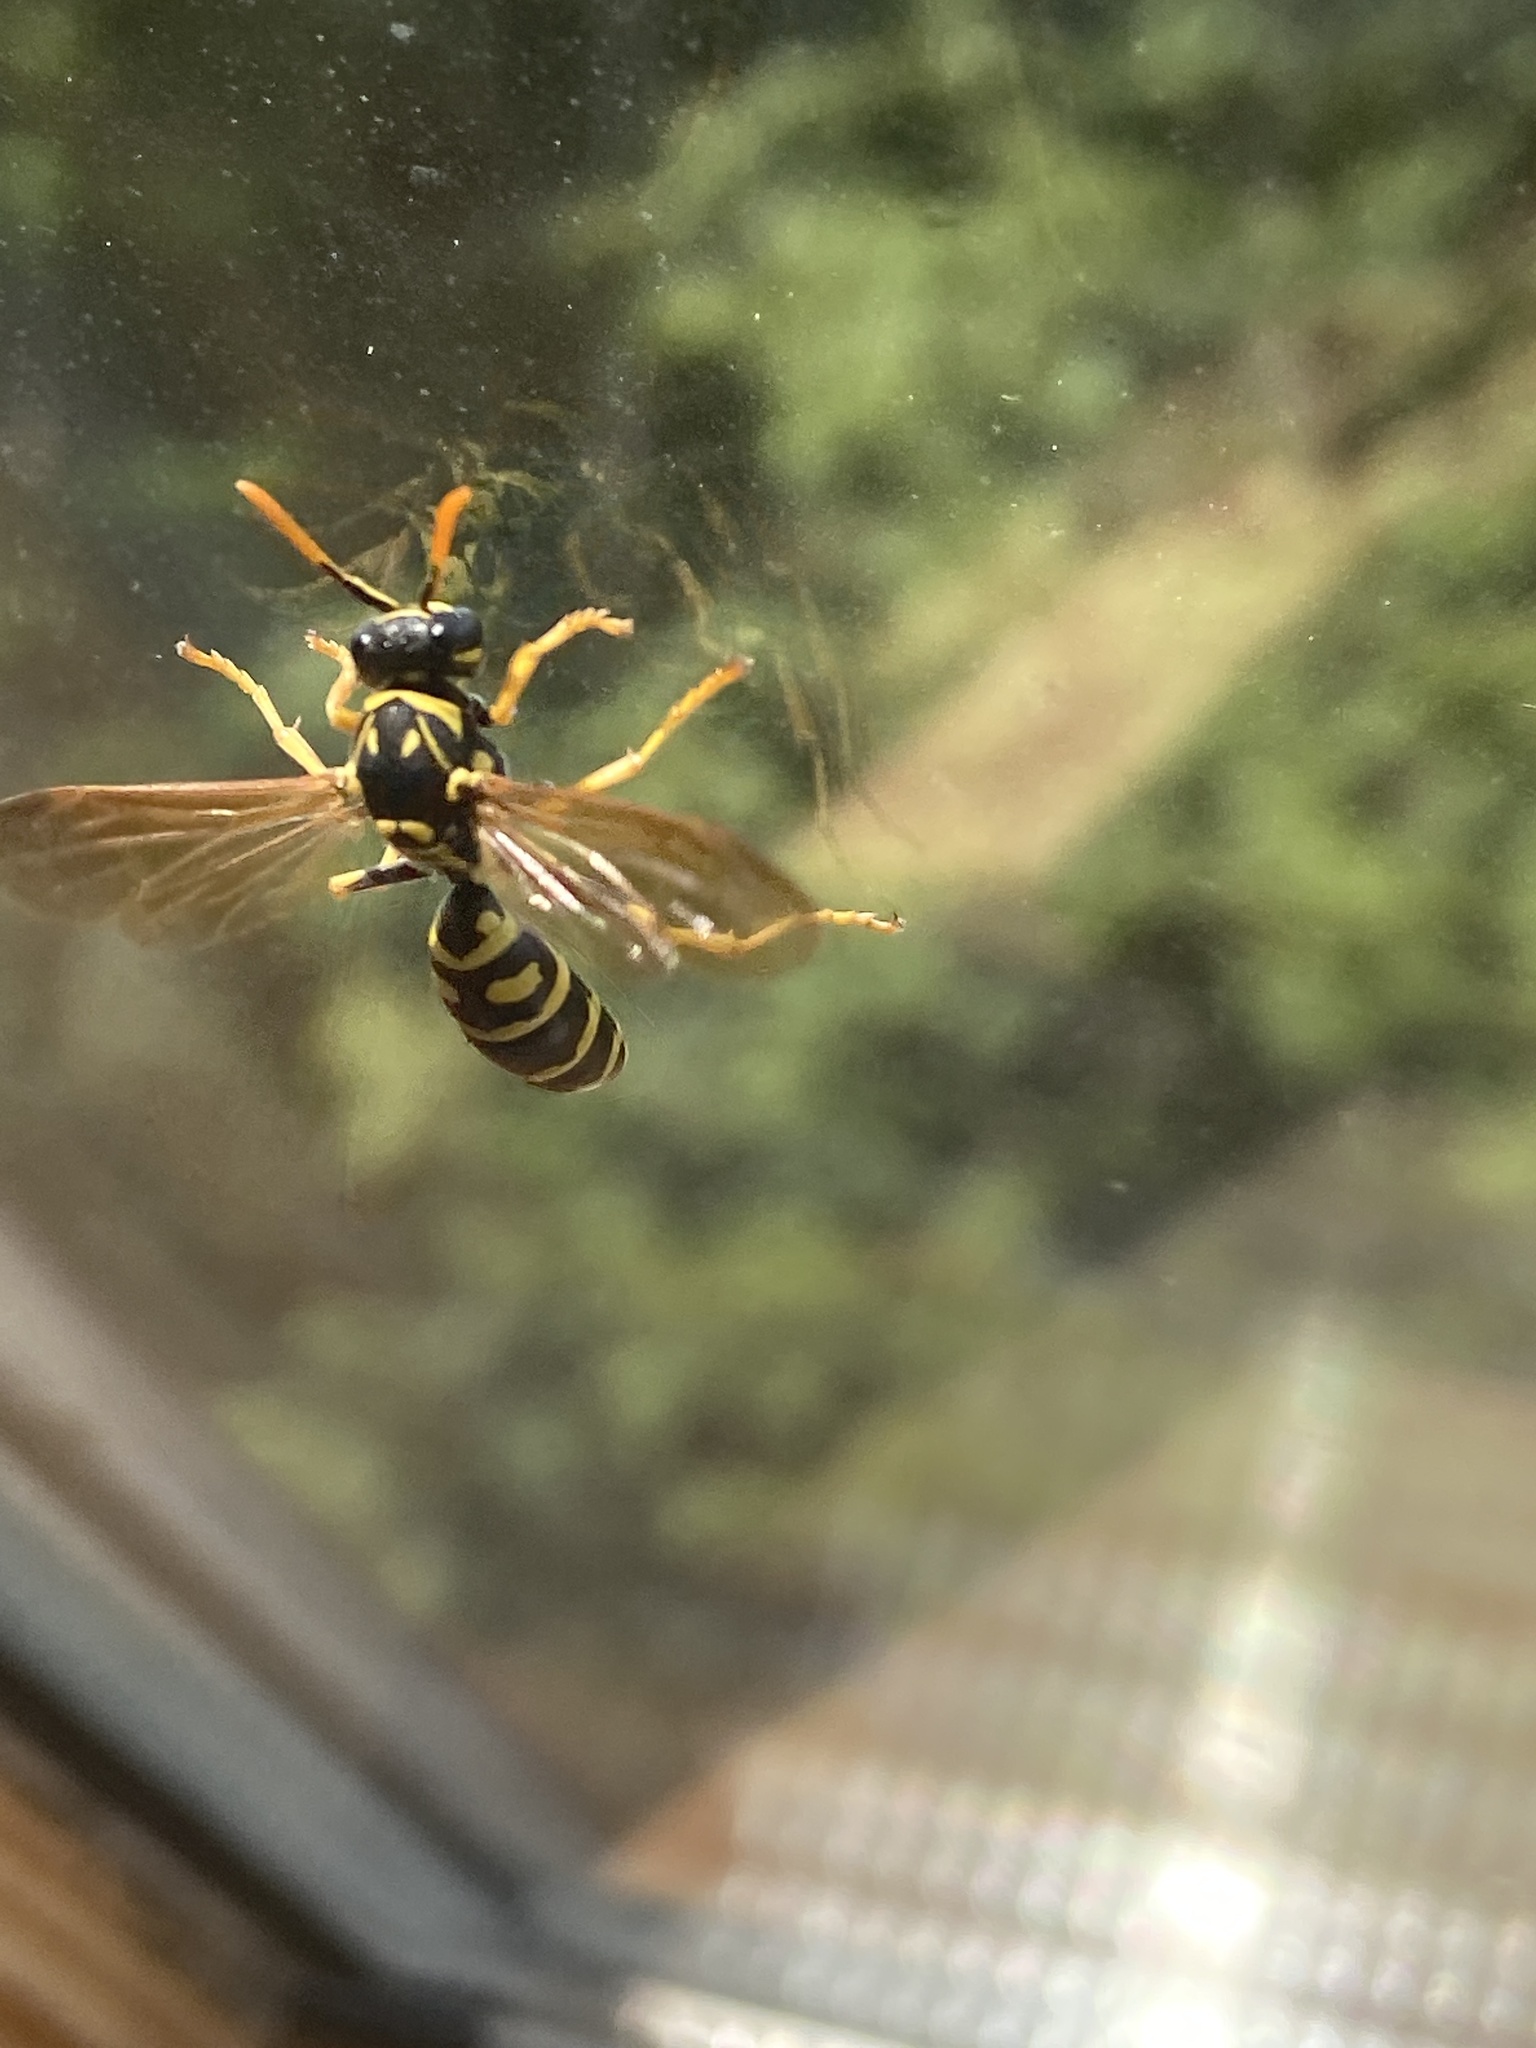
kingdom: Animalia
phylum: Arthropoda
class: Insecta
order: Hymenoptera
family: Eumenidae
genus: Polistes
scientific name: Polistes dominula
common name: Paper wasp
